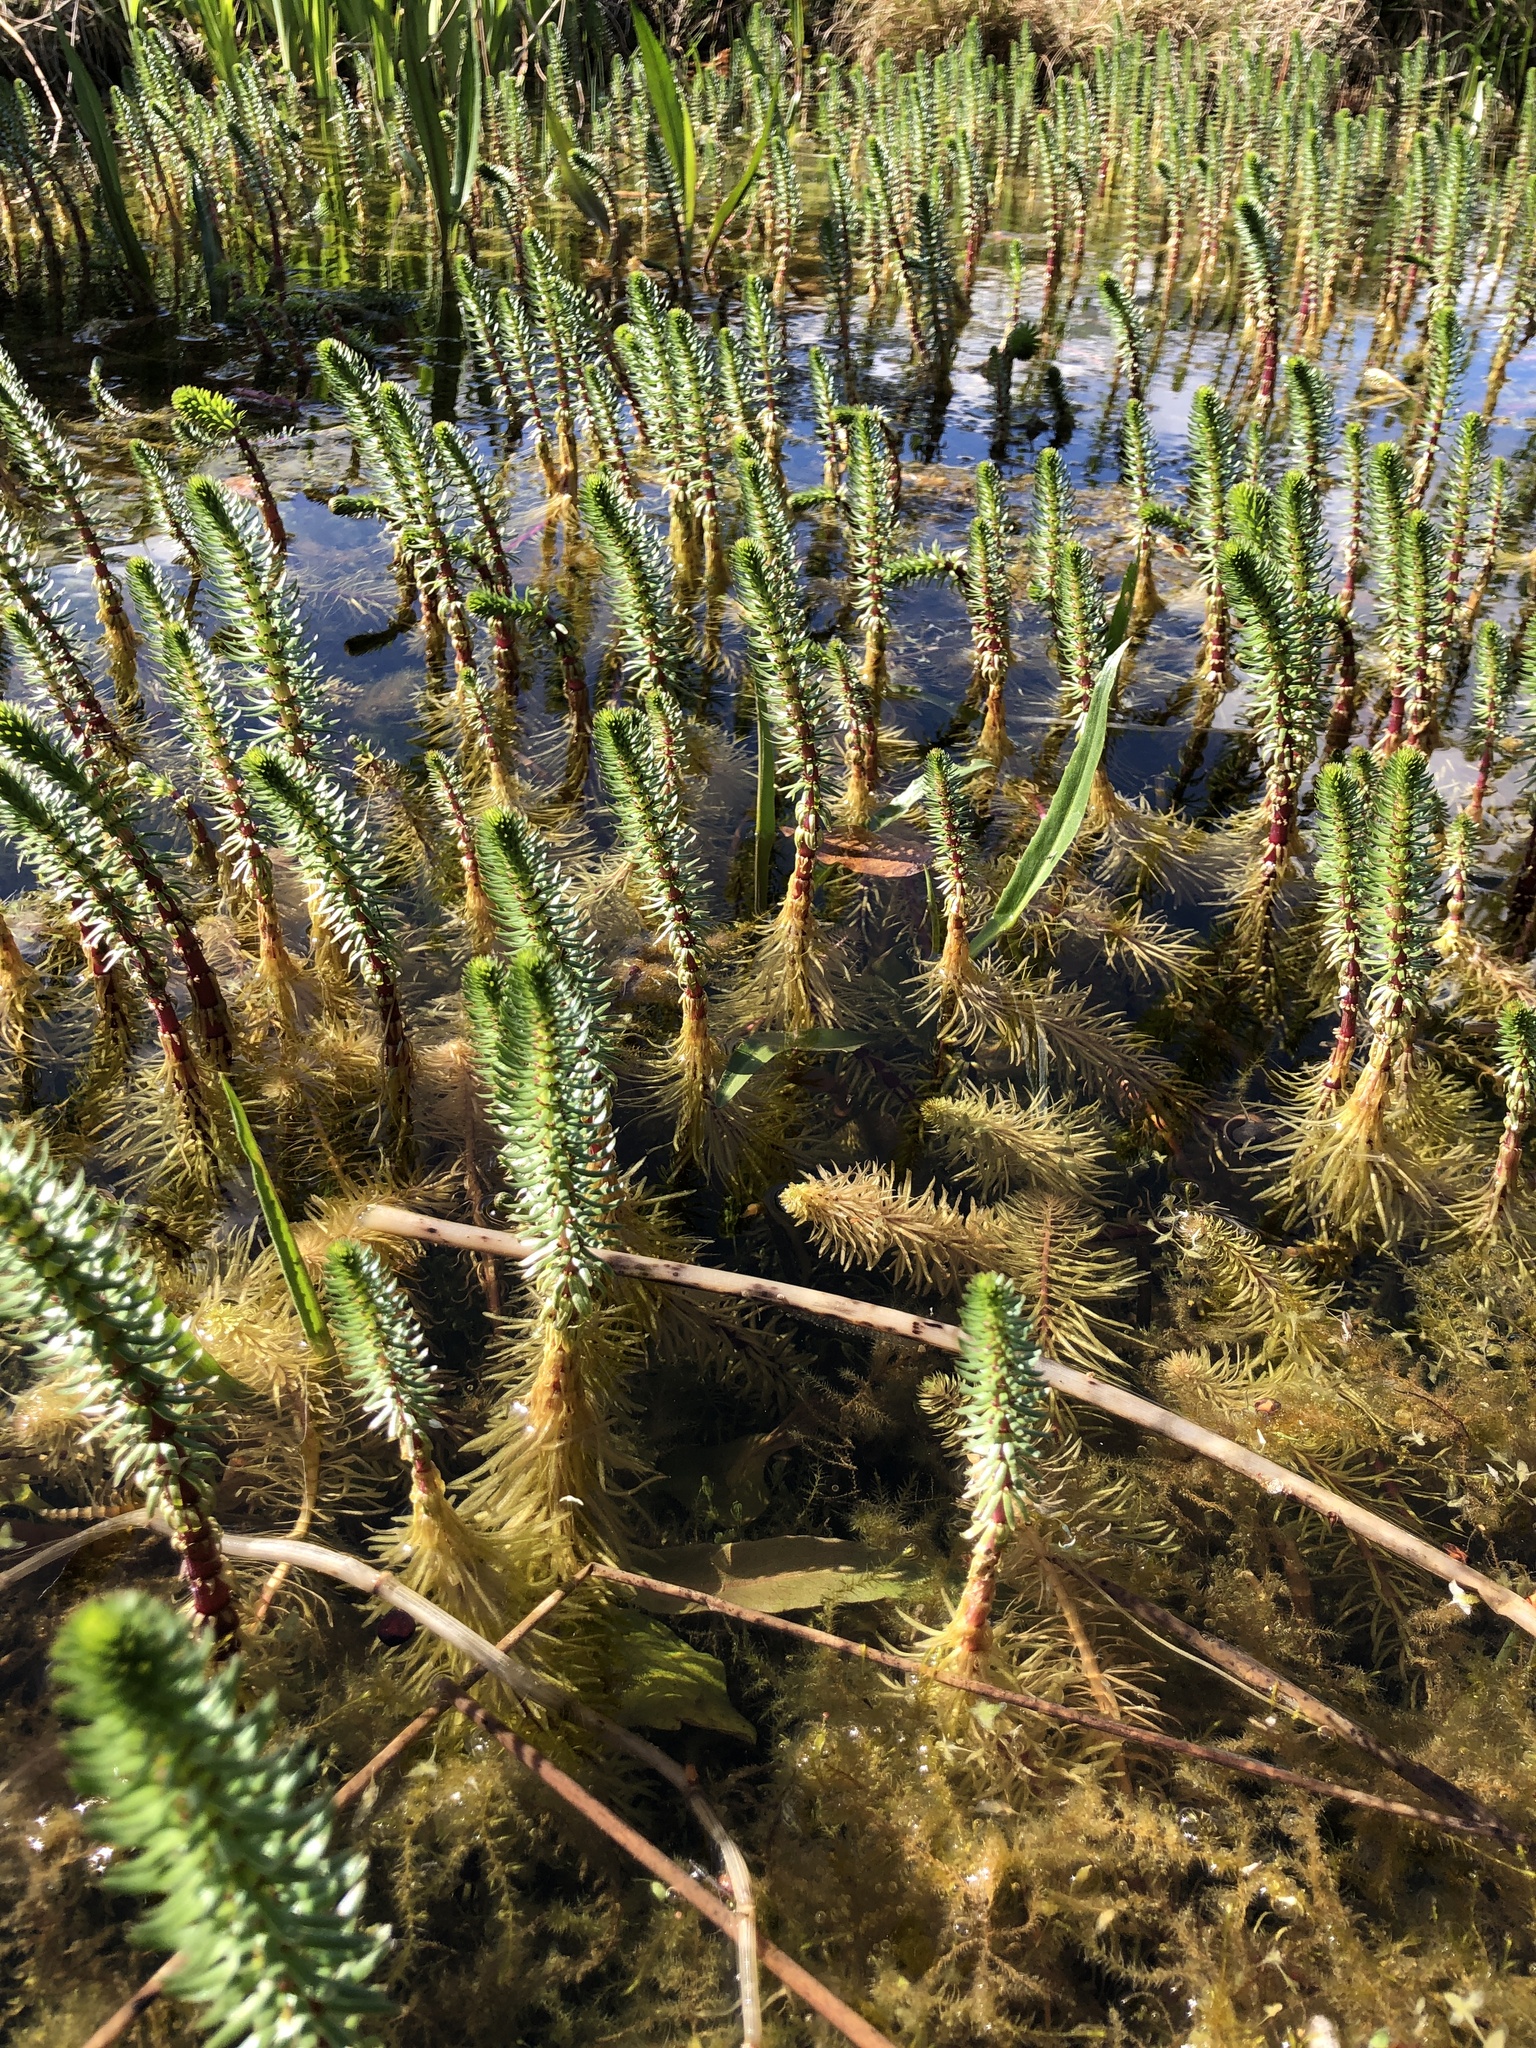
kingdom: Plantae
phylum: Tracheophyta
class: Magnoliopsida
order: Lamiales
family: Plantaginaceae
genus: Hippuris
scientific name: Hippuris vulgaris
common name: Mare's-tail
